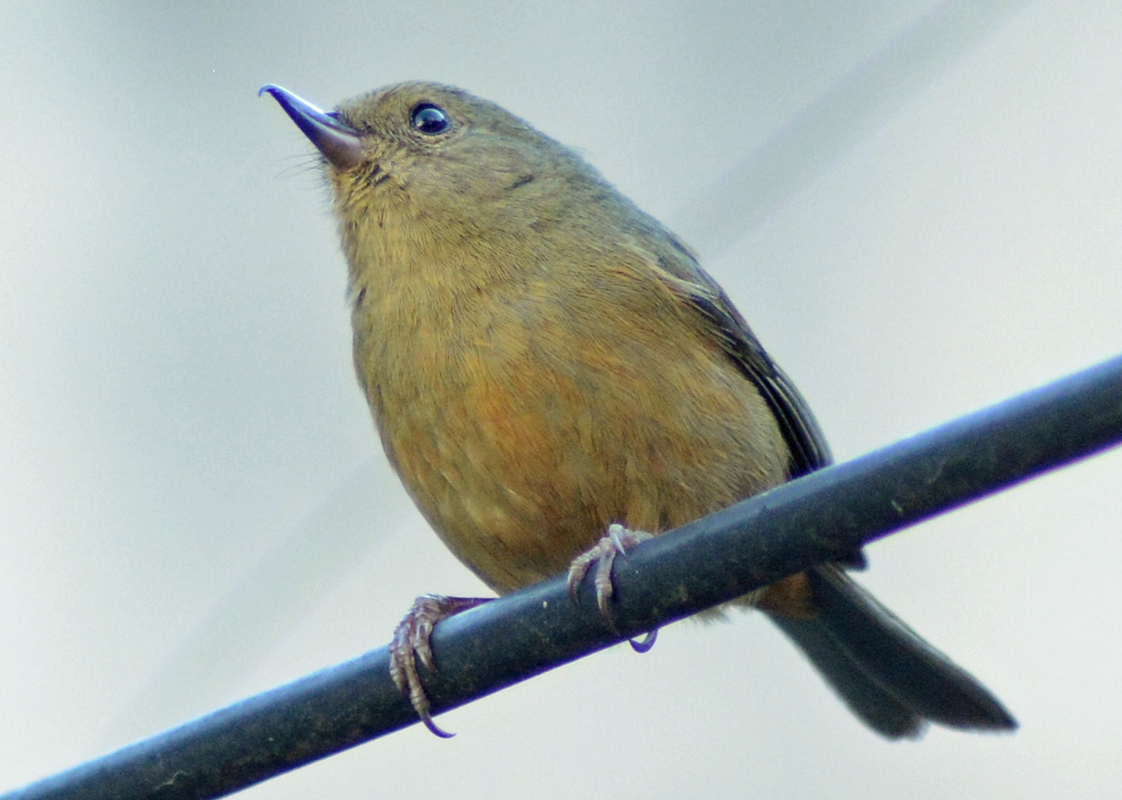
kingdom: Animalia
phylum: Chordata
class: Aves
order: Passeriformes
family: Thraupidae
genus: Diglossa
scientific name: Diglossa baritula
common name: Cinnamon-bellied flowerpiercer
